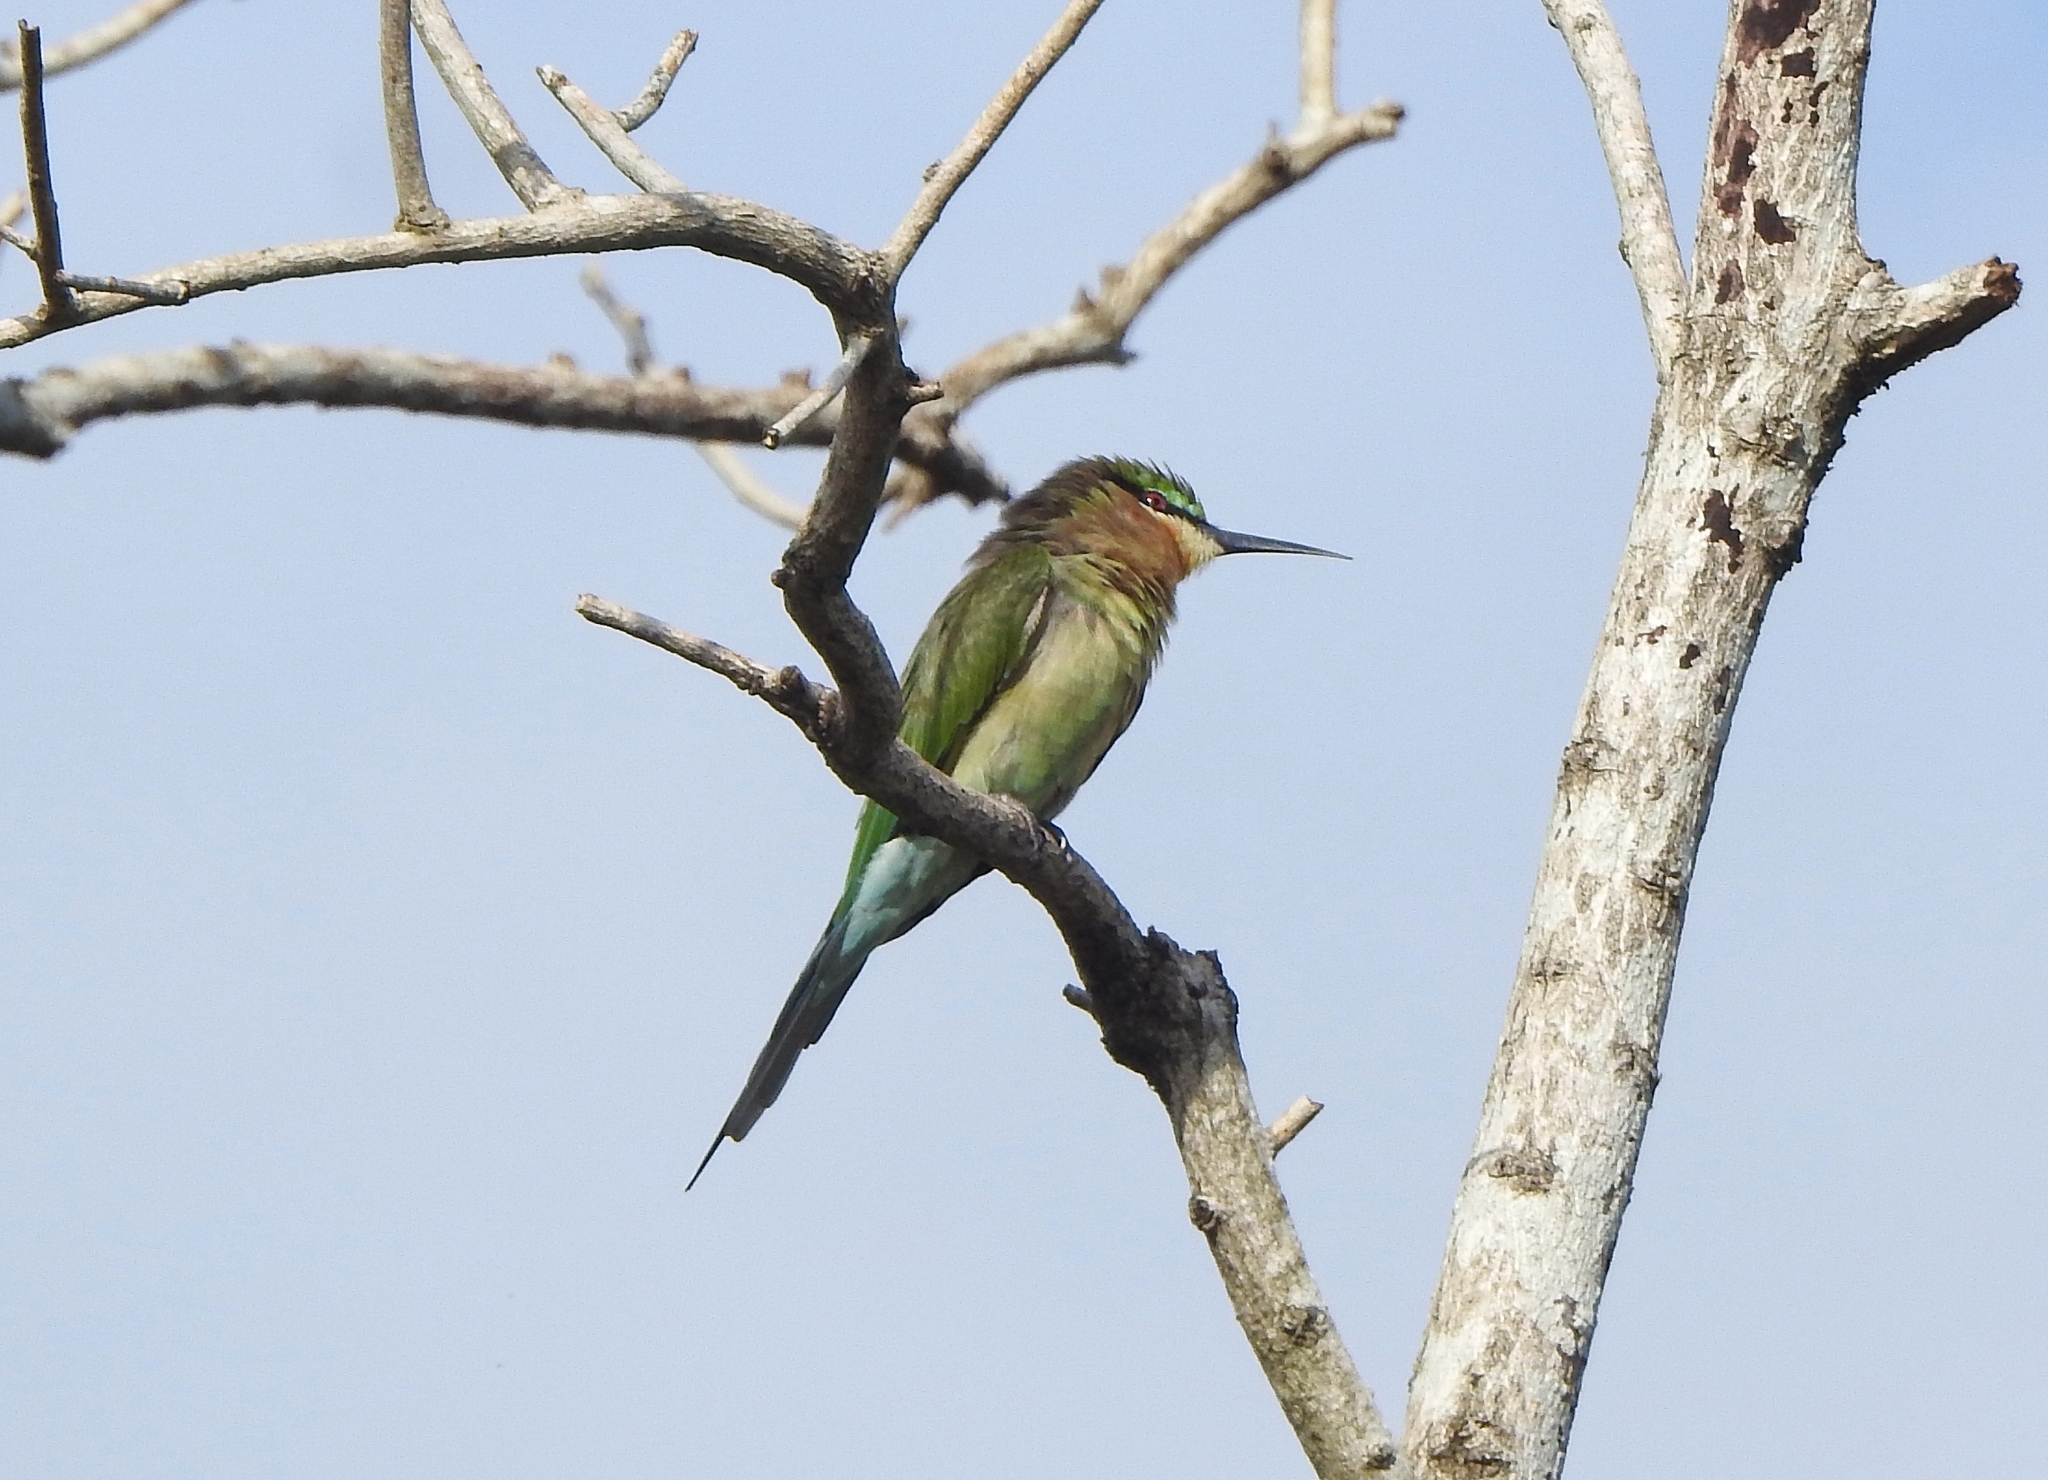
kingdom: Animalia
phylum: Chordata
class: Aves
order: Coraciiformes
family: Meropidae
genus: Merops
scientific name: Merops philippinus
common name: Blue-tailed bee-eater
